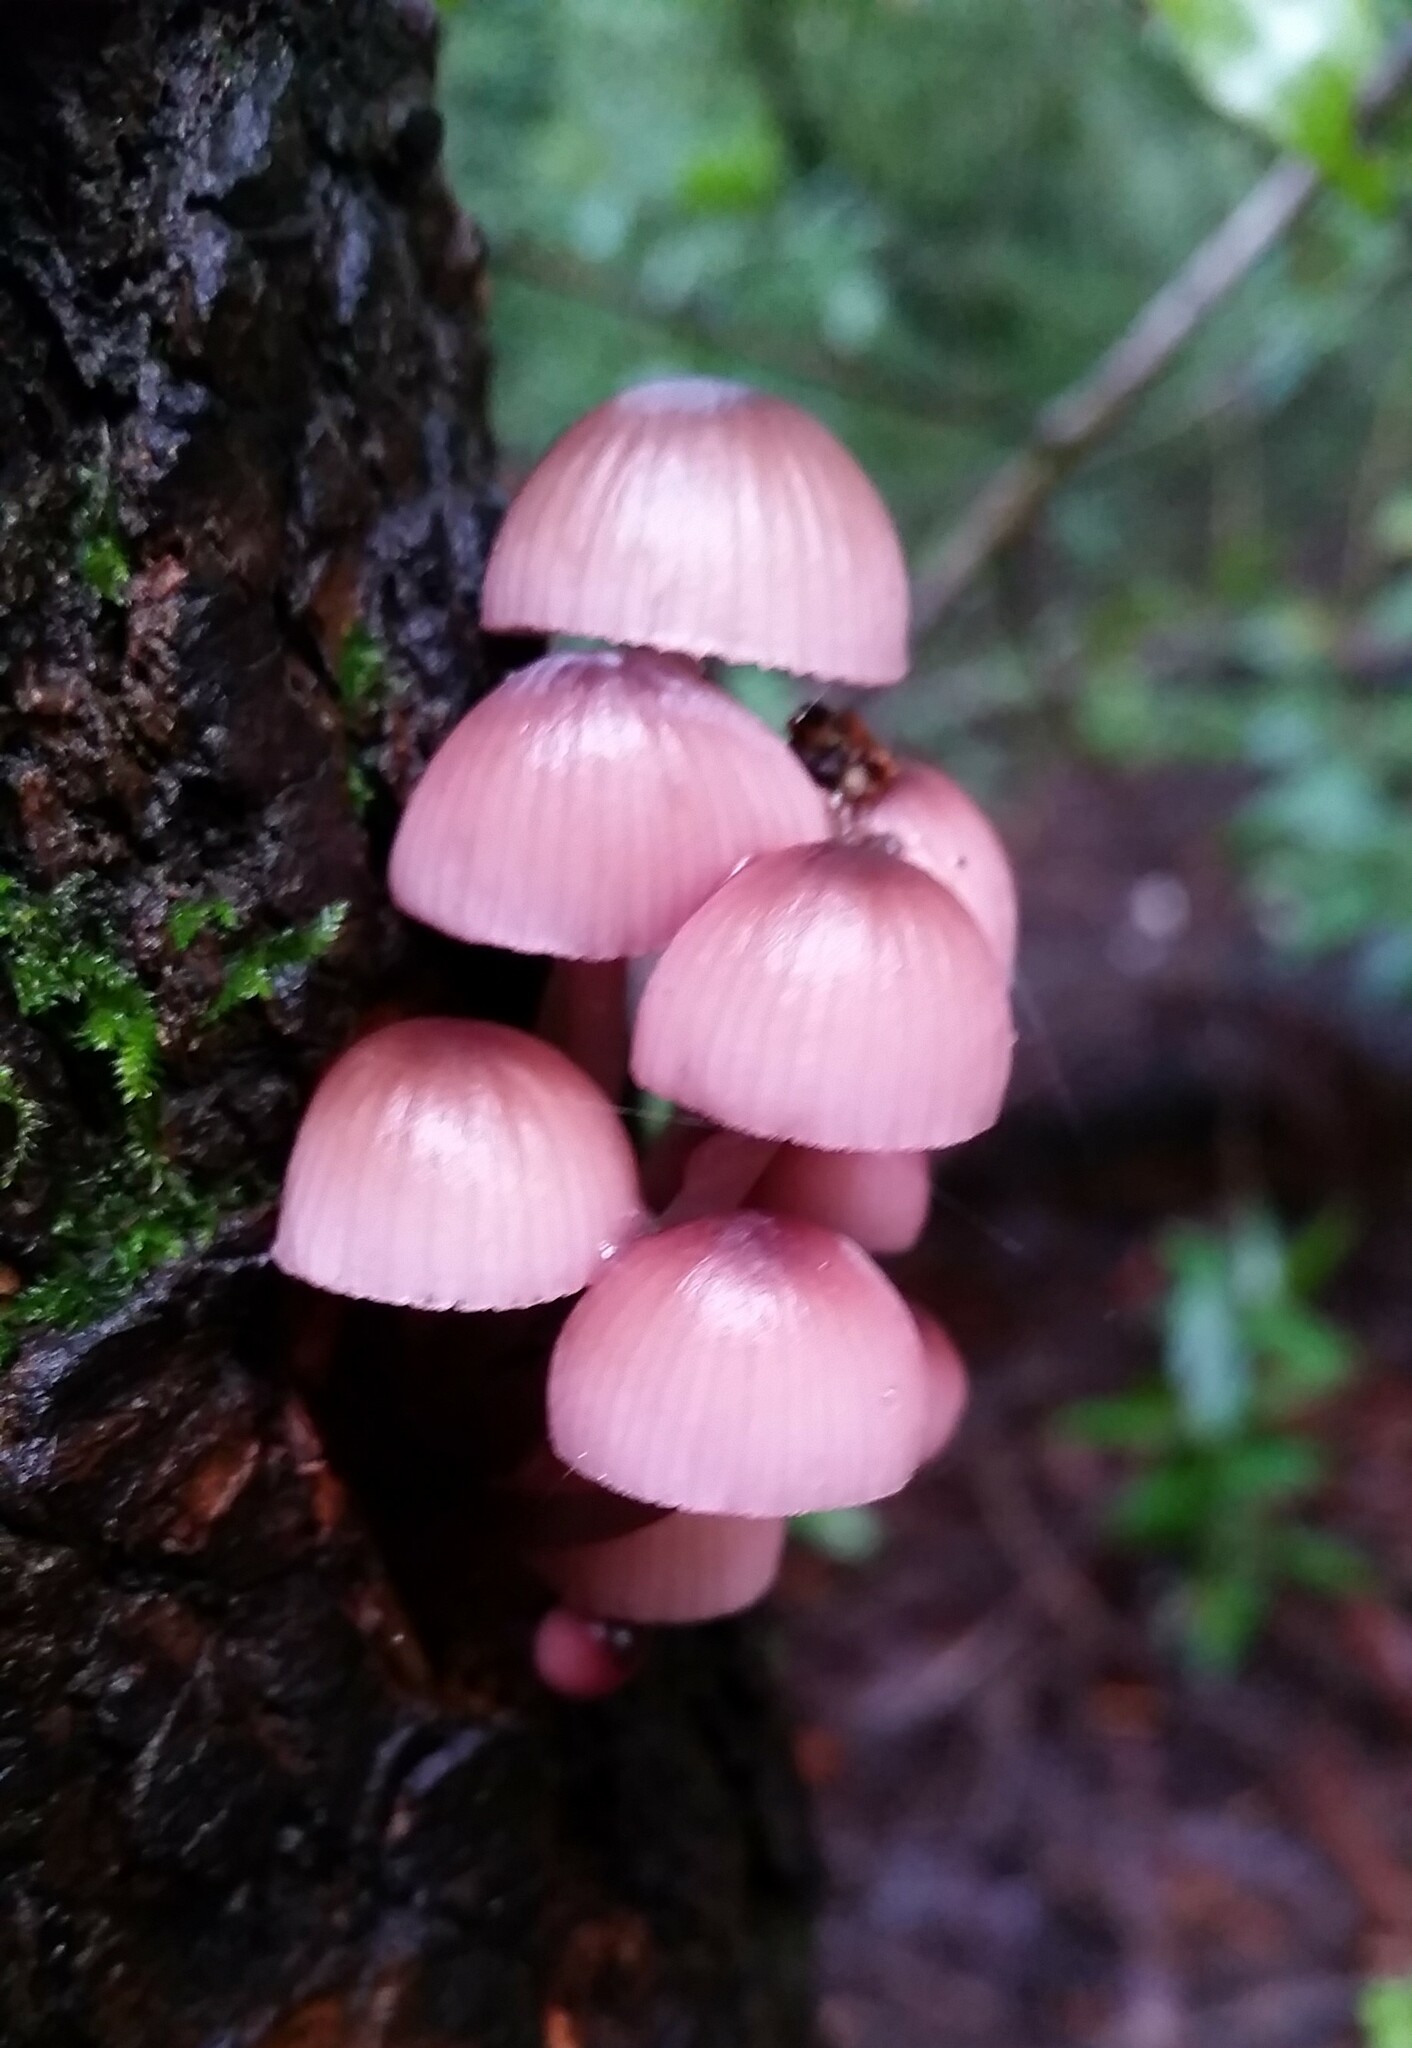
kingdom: Fungi
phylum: Basidiomycota
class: Agaricomycetes
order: Agaricales
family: Mycenaceae
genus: Mycena
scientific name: Mycena haematopus
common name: Burgundydrop bonnet
